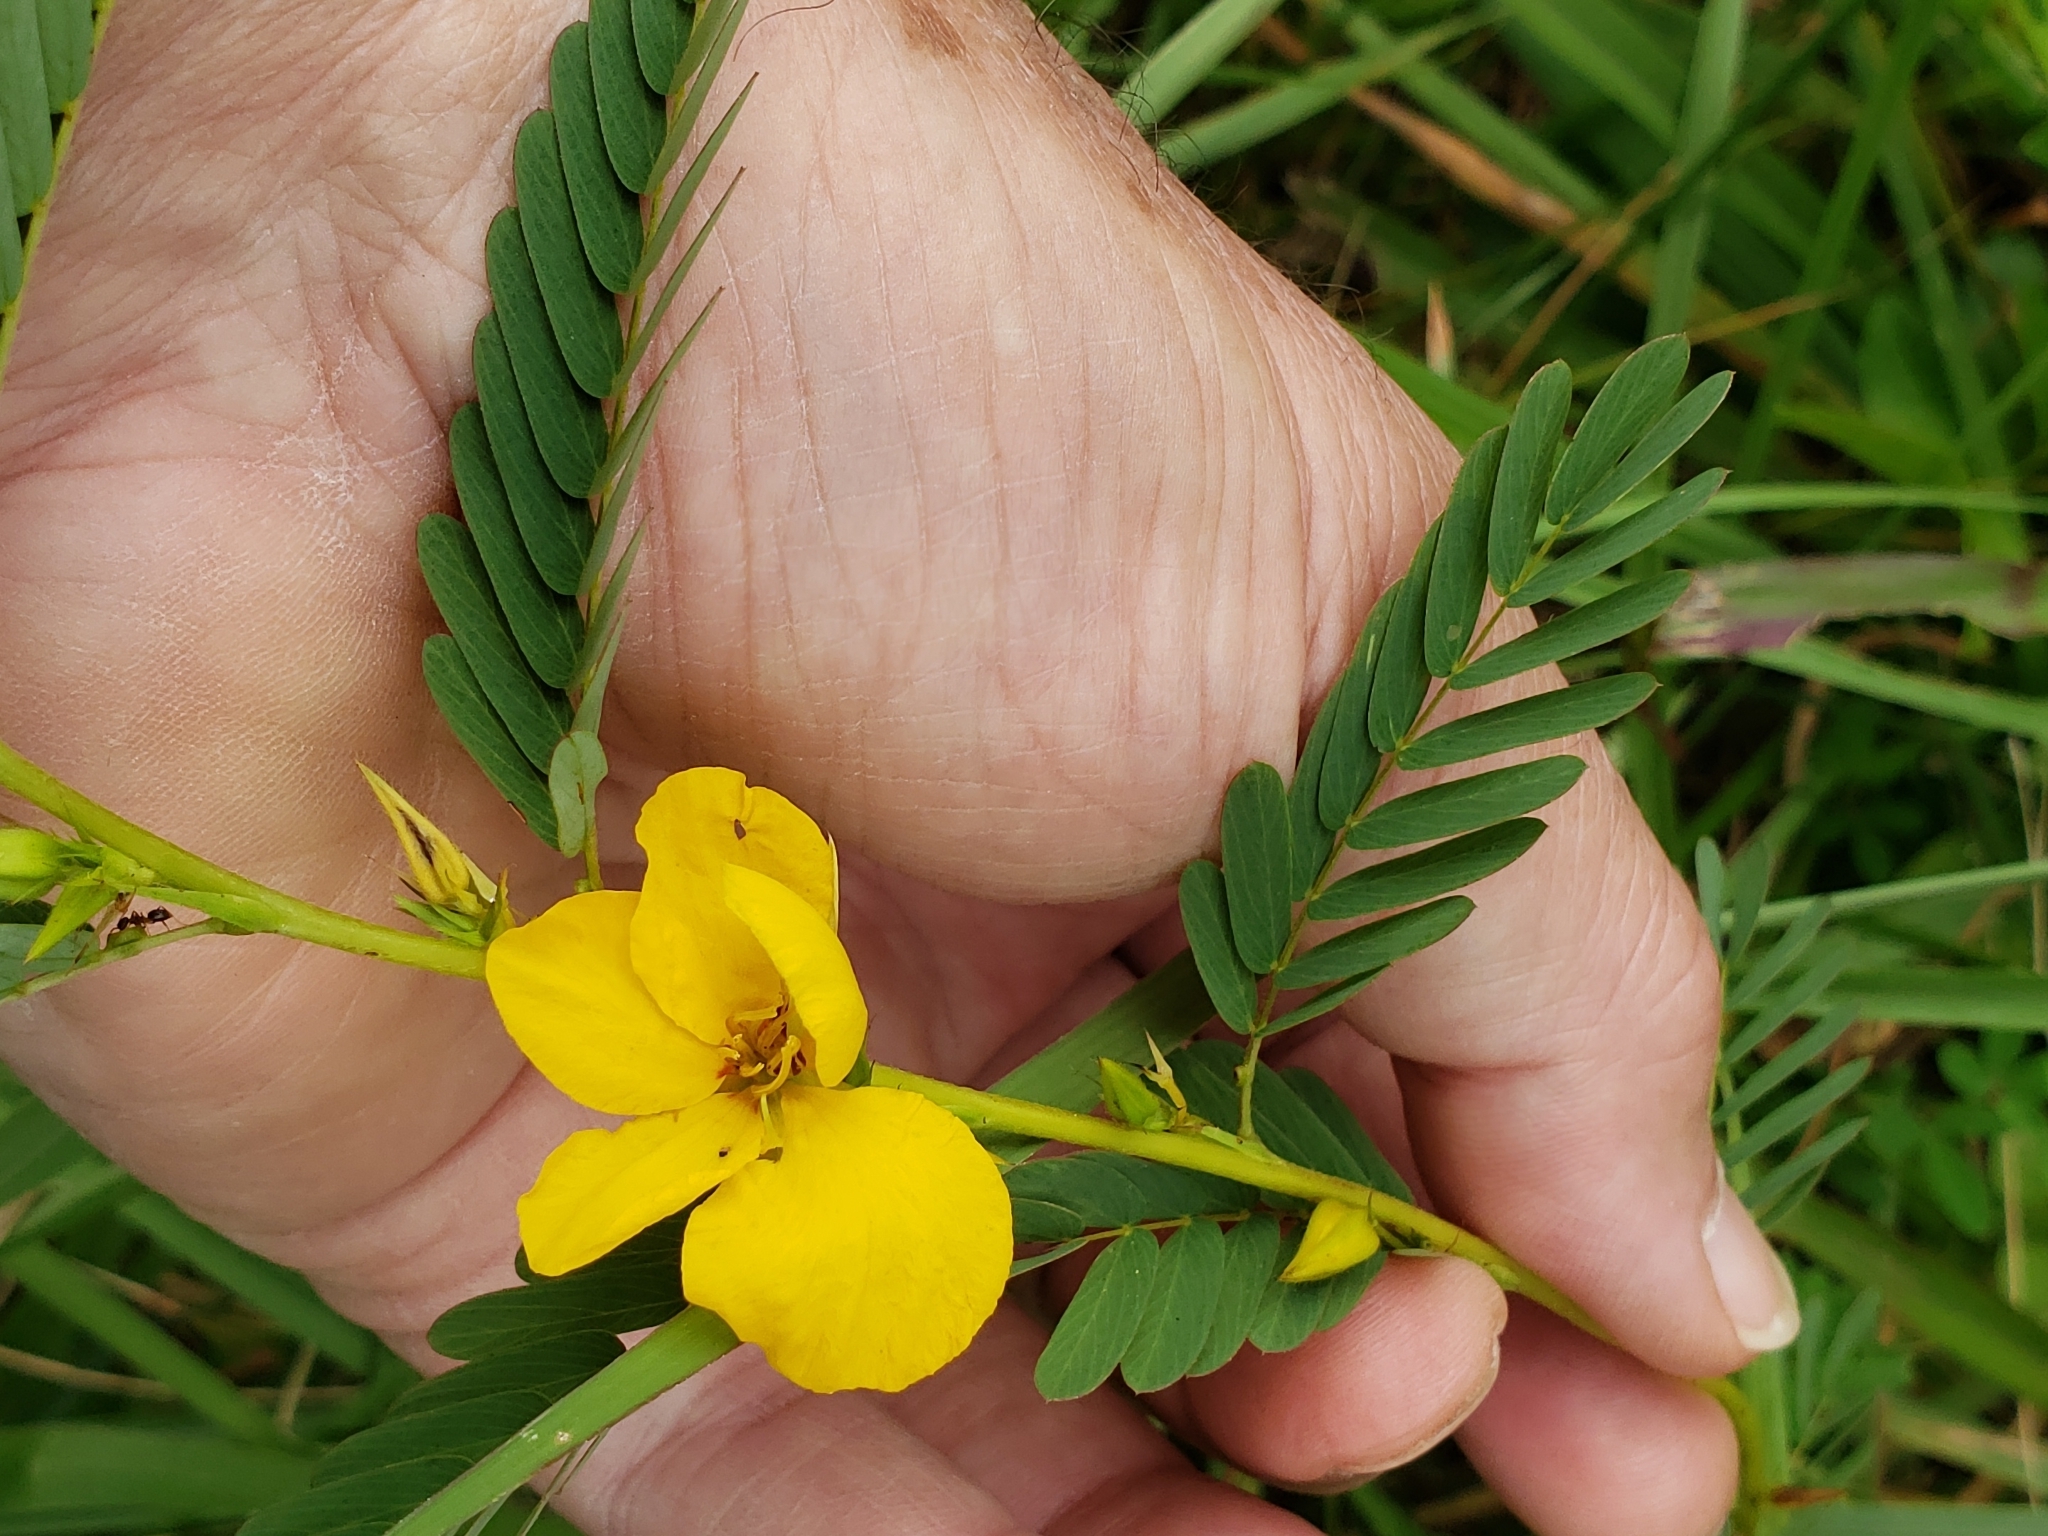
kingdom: Plantae
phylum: Tracheophyta
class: Magnoliopsida
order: Fabales
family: Fabaceae
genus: Chamaecrista
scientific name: Chamaecrista fasciculata
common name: Golden cassia
